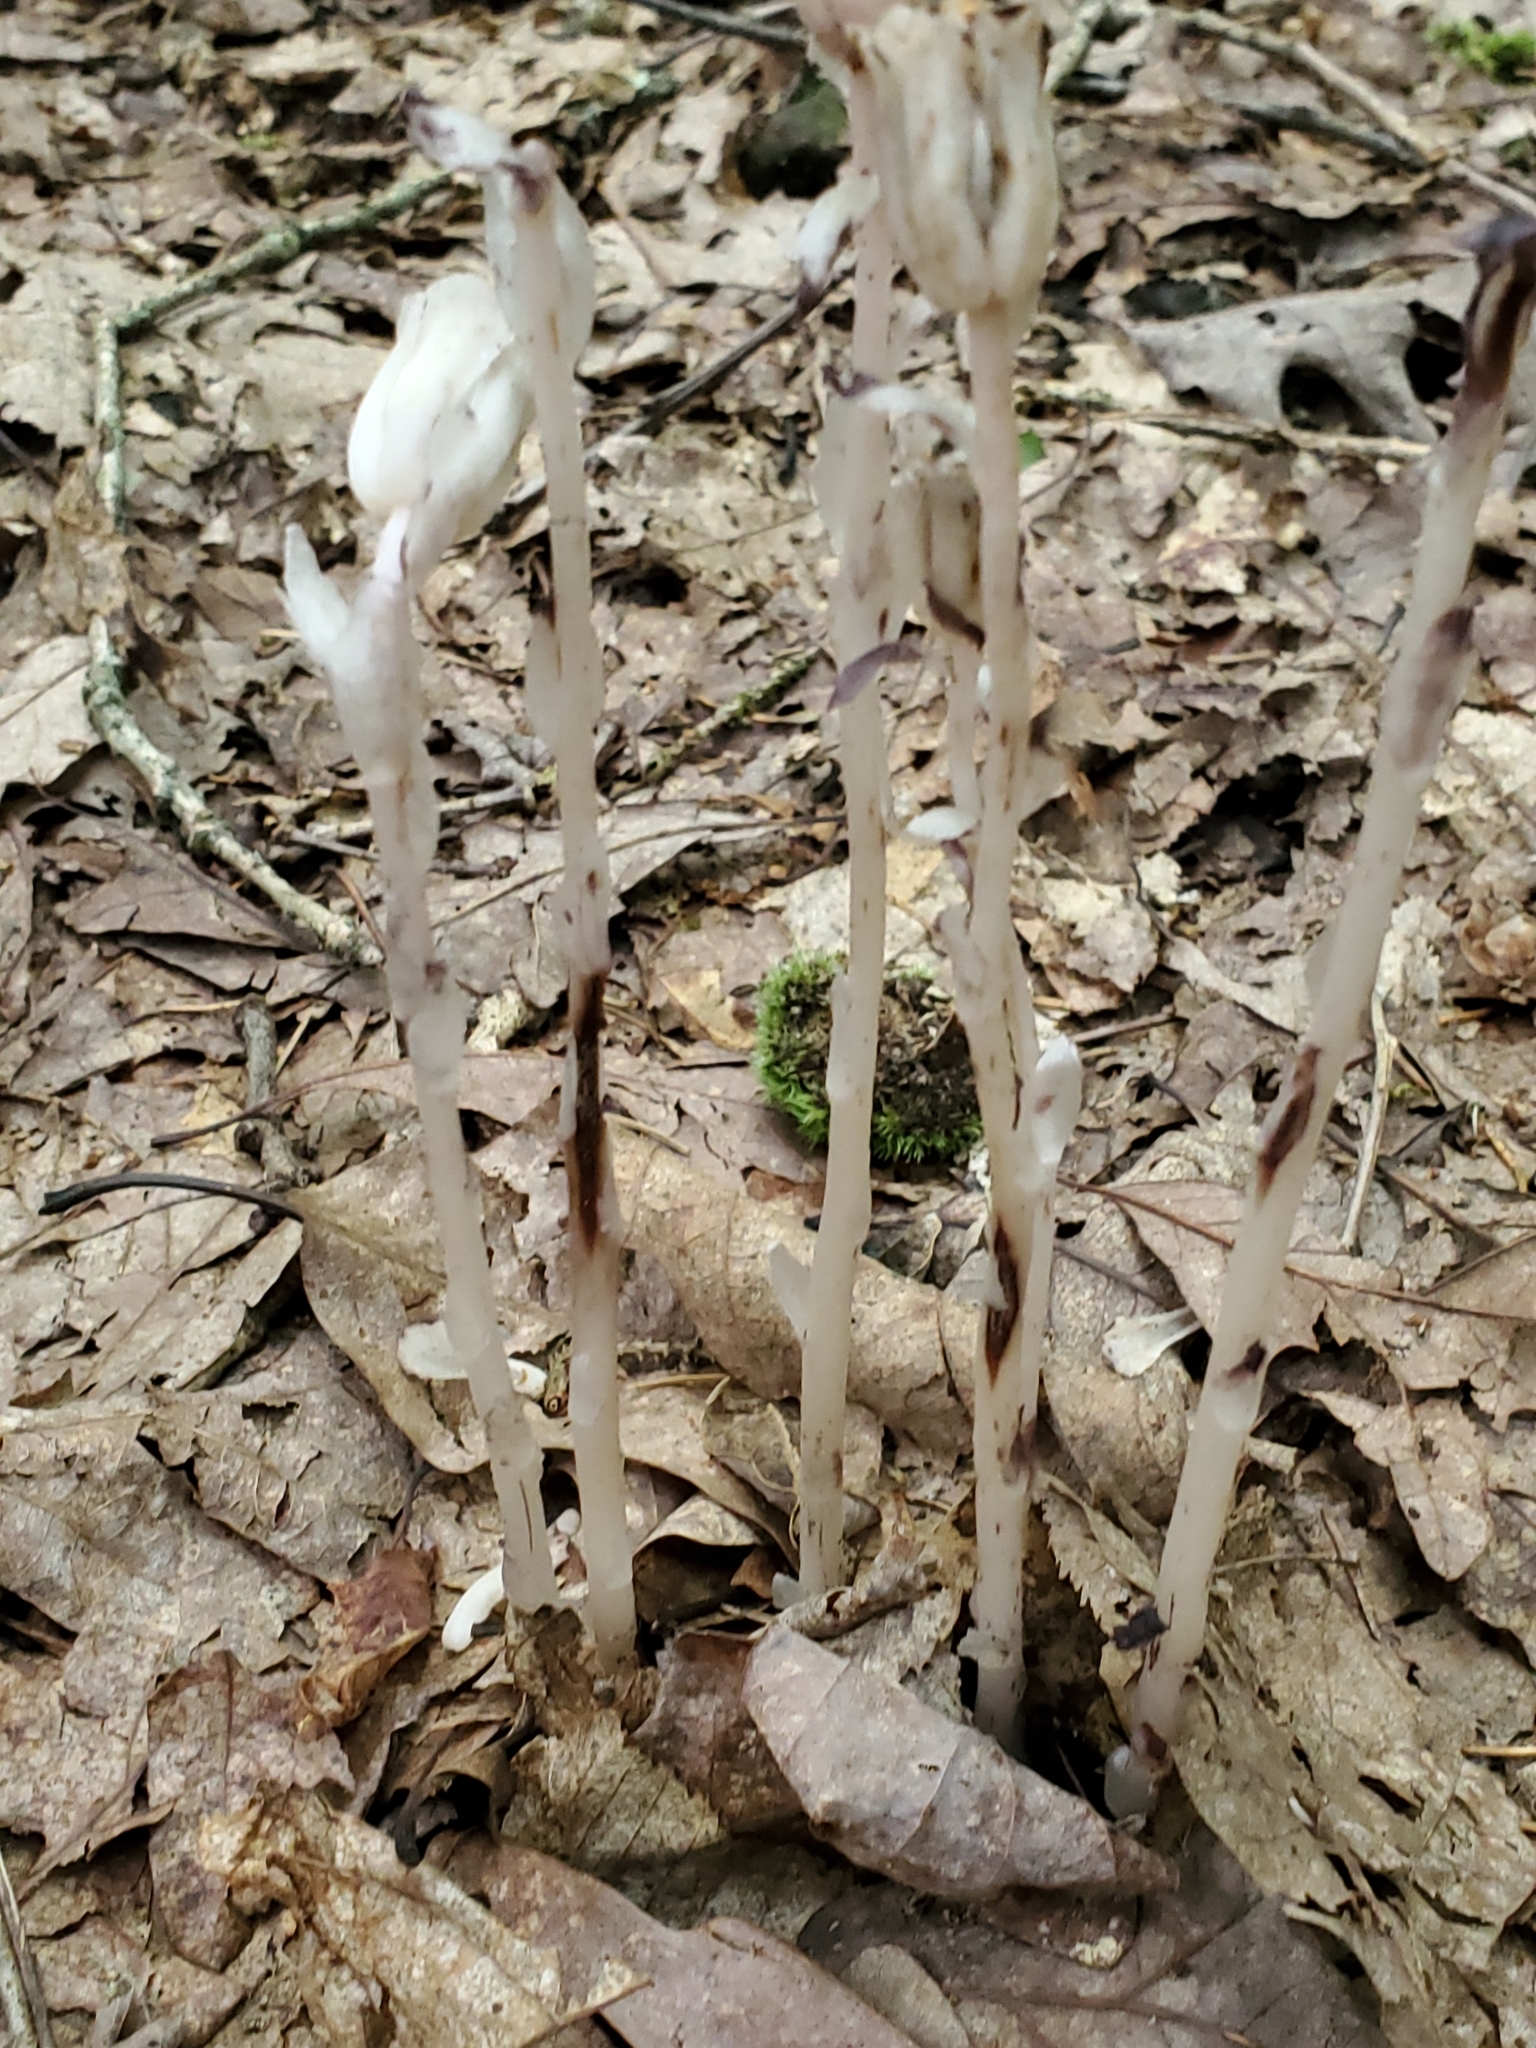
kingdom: Plantae
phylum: Tracheophyta
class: Magnoliopsida
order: Ericales
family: Ericaceae
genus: Monotropa
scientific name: Monotropa uniflora
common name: Convulsion root
